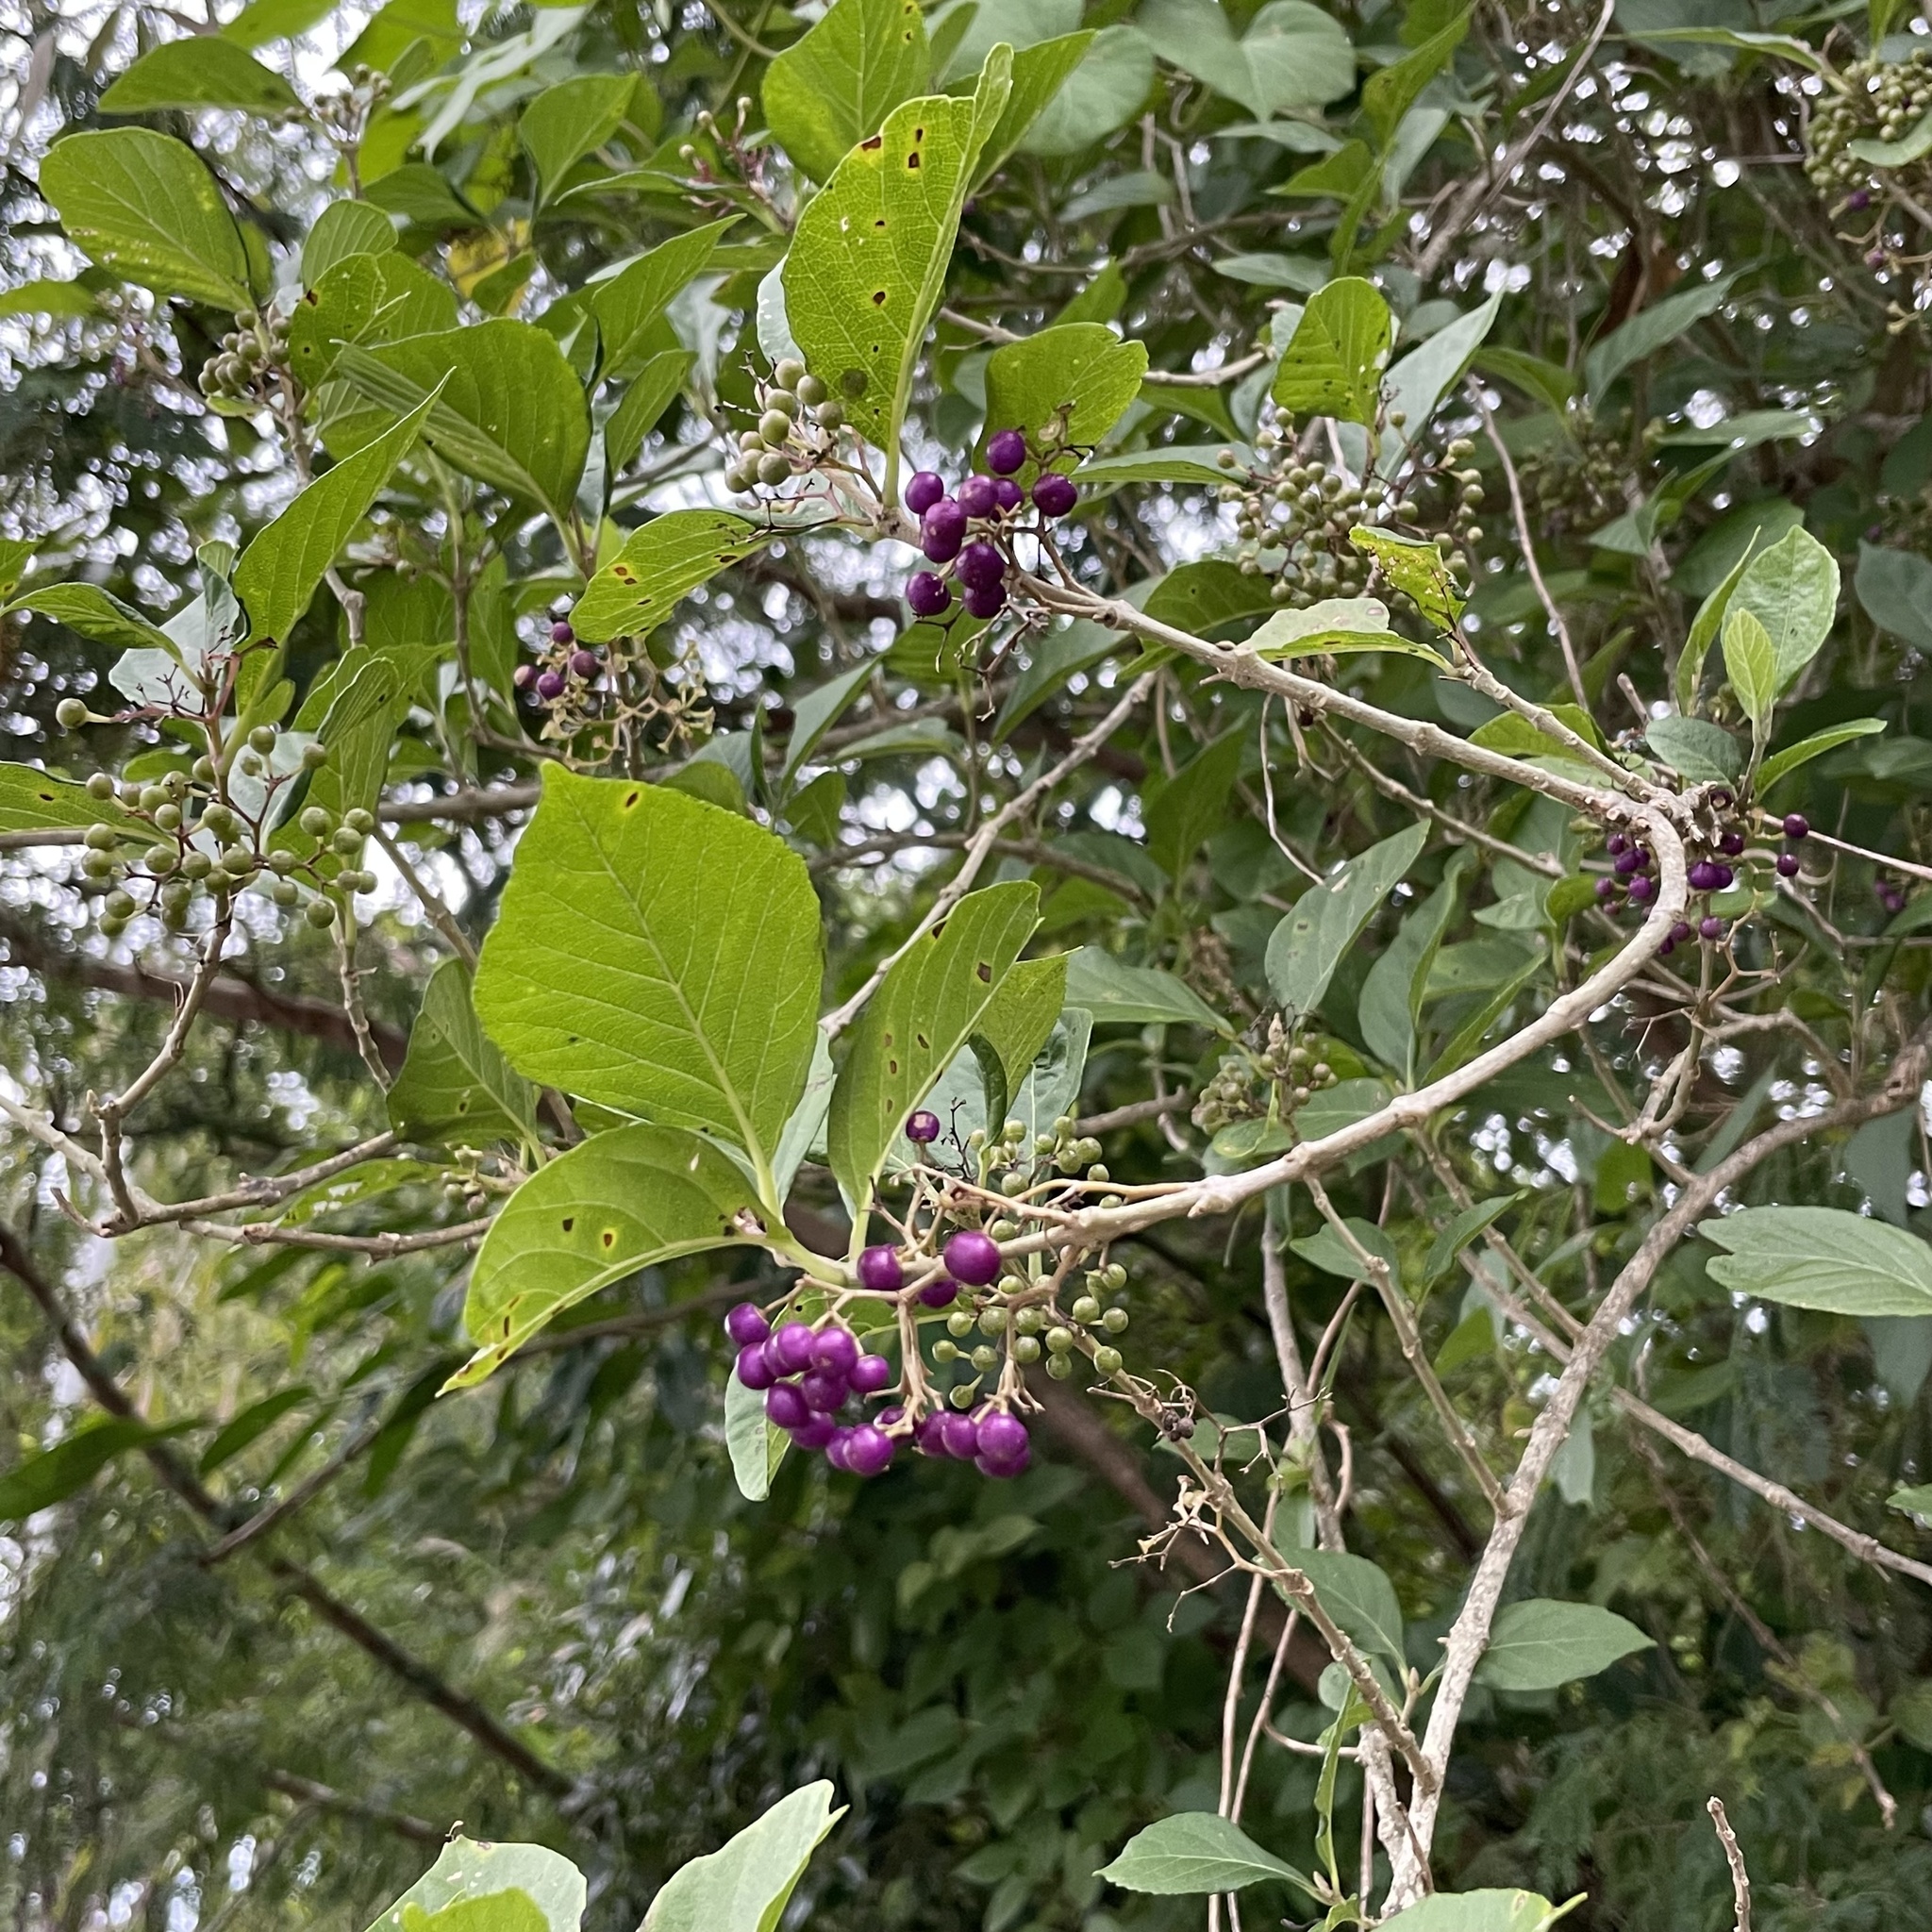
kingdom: Plantae
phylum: Tracheophyta
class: Magnoliopsida
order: Lamiales
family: Lamiaceae
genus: Callicarpa
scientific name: Callicarpa japonica
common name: Japanese beauty-berry
